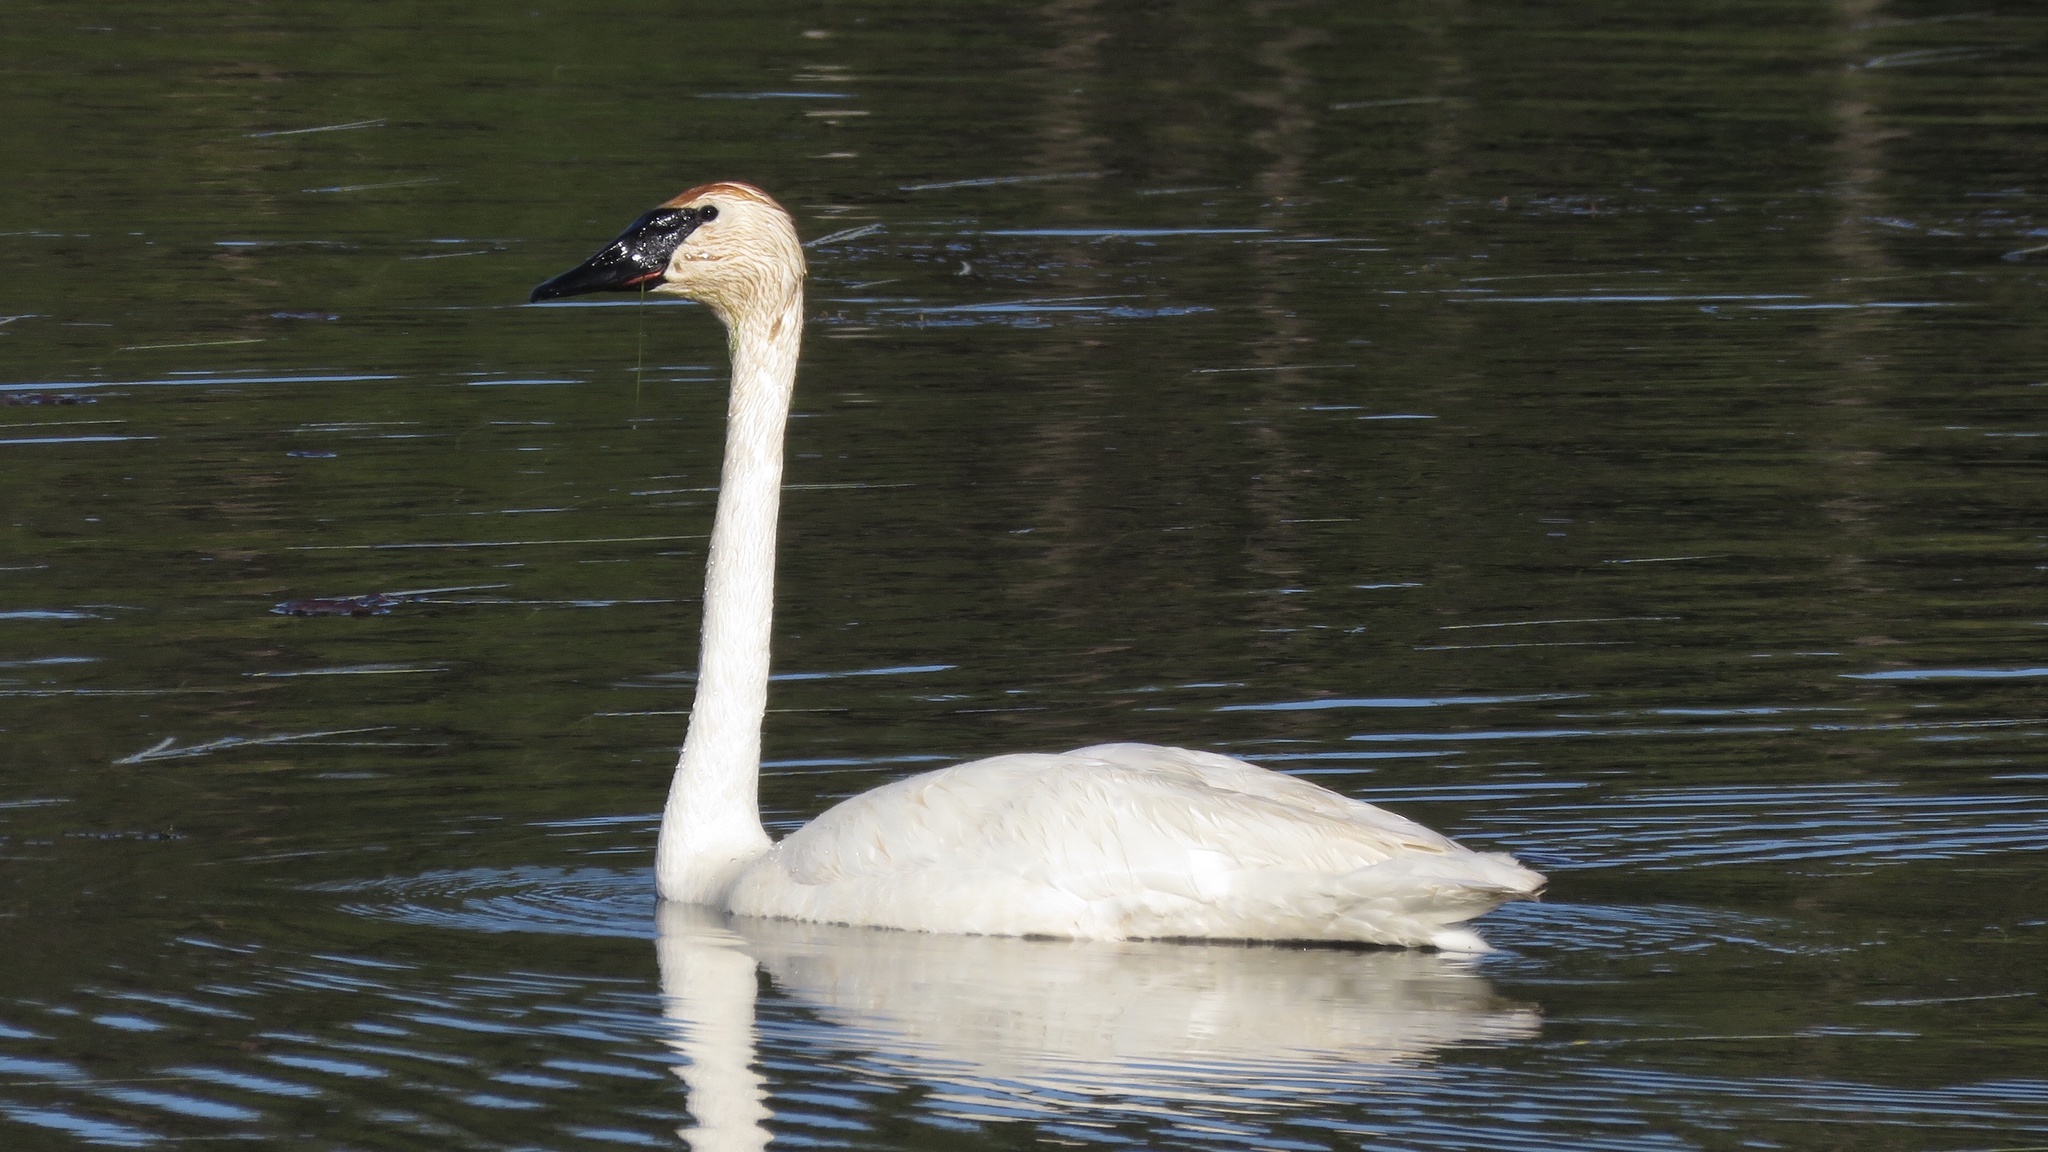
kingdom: Animalia
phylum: Chordata
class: Aves
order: Anseriformes
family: Anatidae
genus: Cygnus
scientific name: Cygnus buccinator
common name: Trumpeter swan
